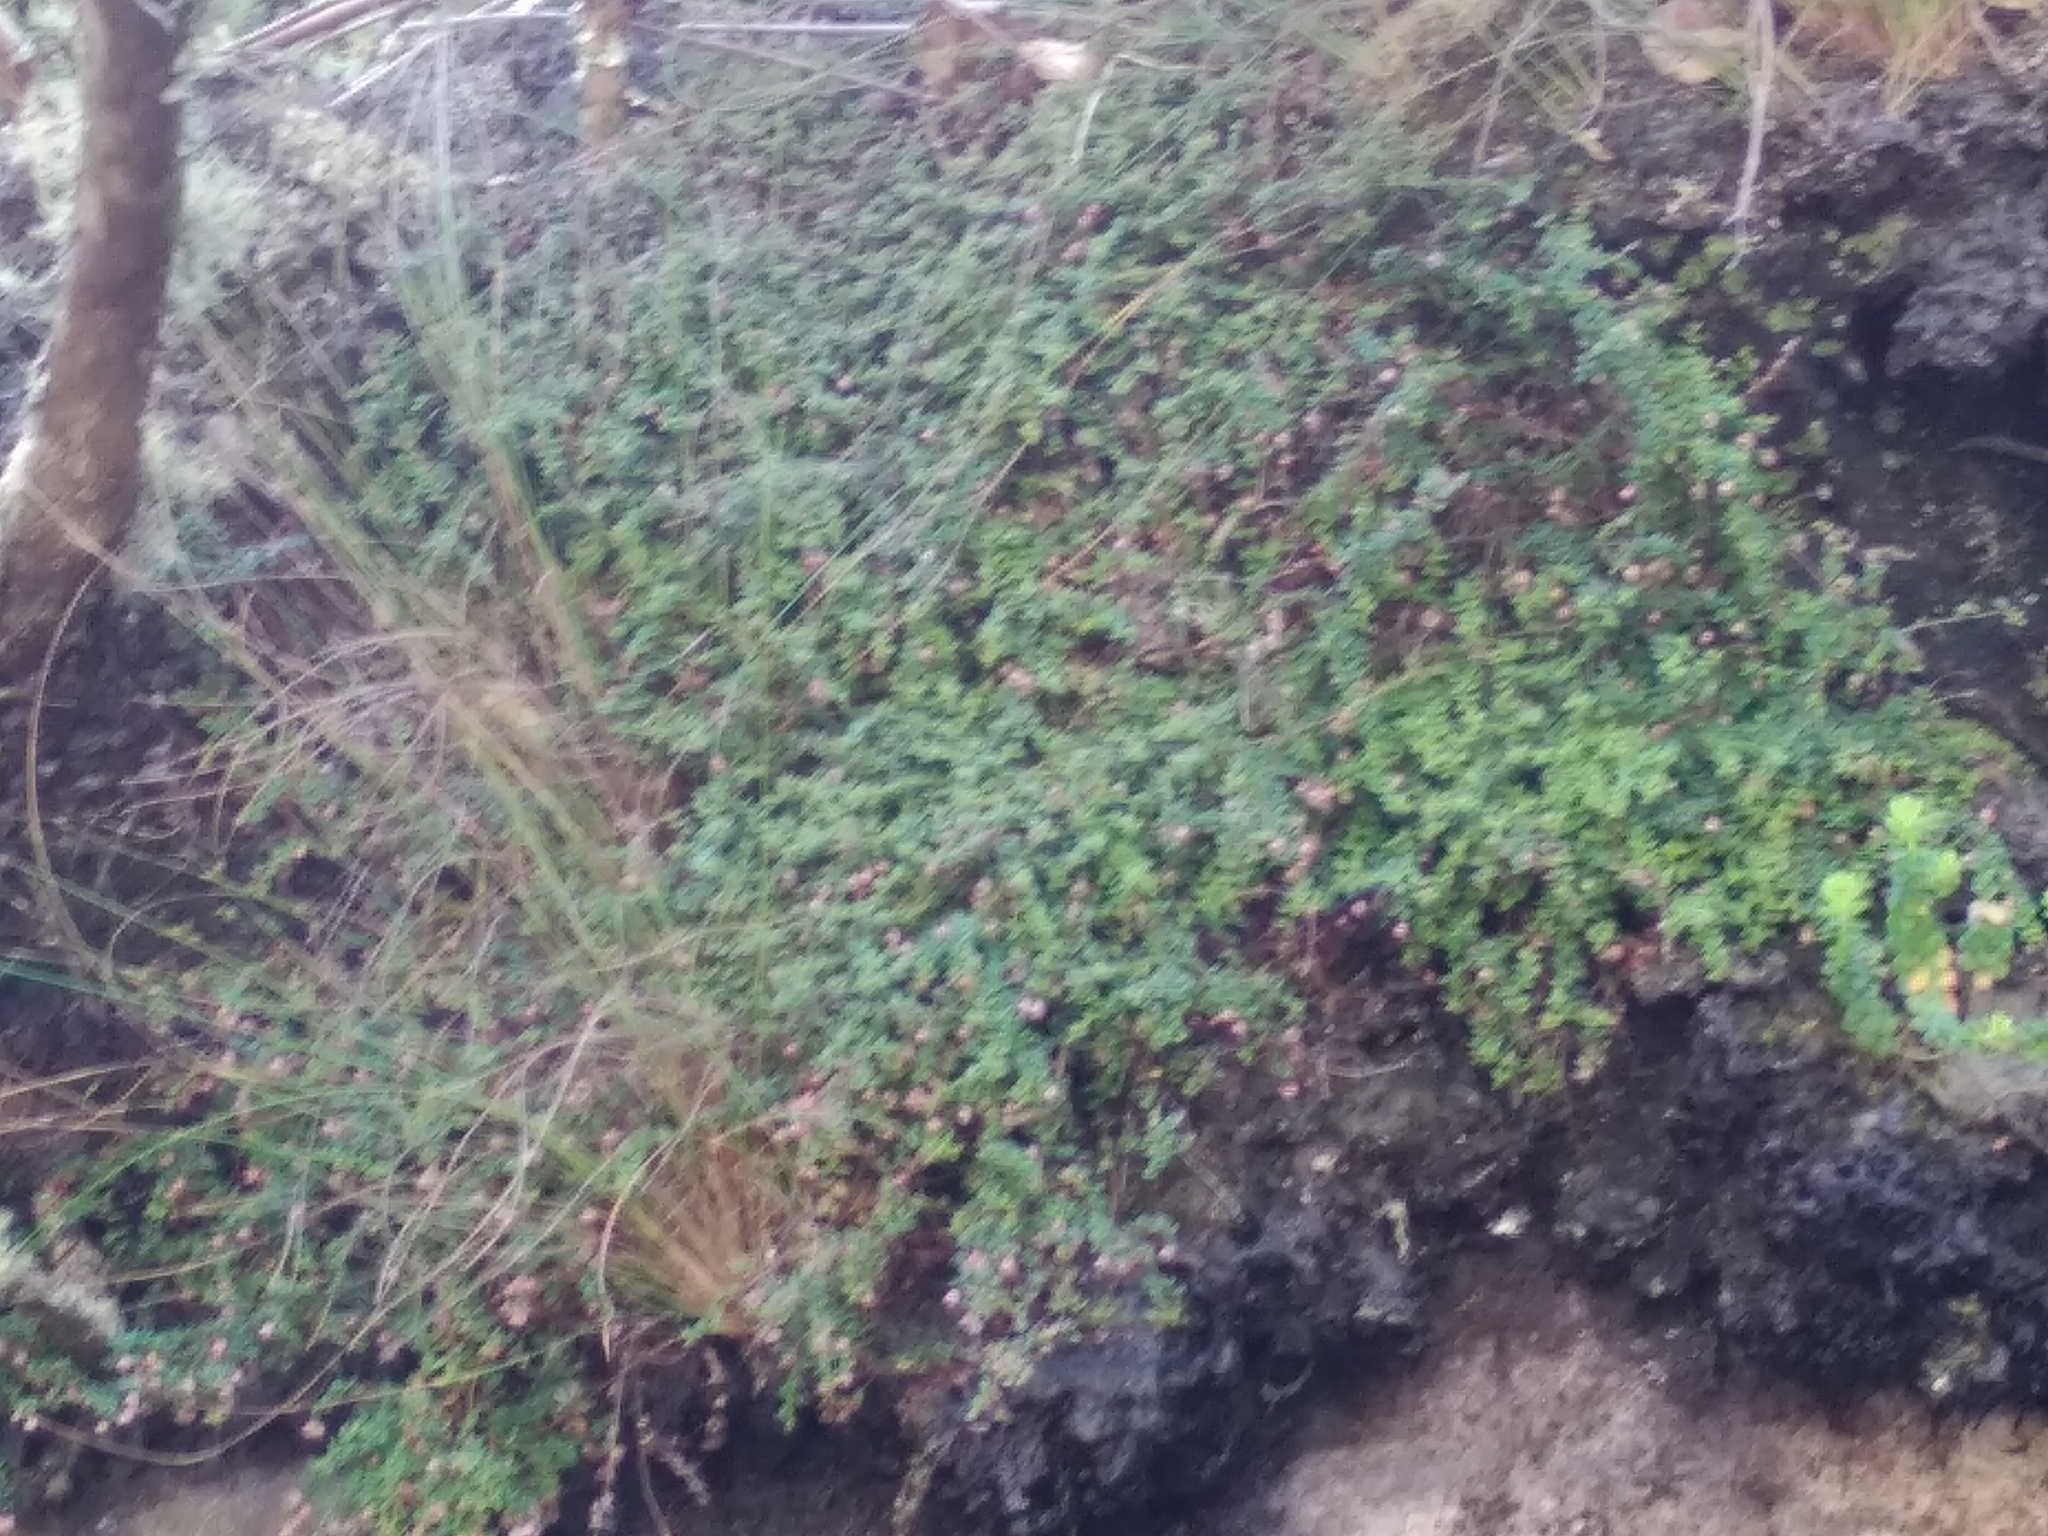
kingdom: Plantae
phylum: Tracheophyta
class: Magnoliopsida
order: Ericales
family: Ericaceae
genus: Erica
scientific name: Erica oxycoccifolia
